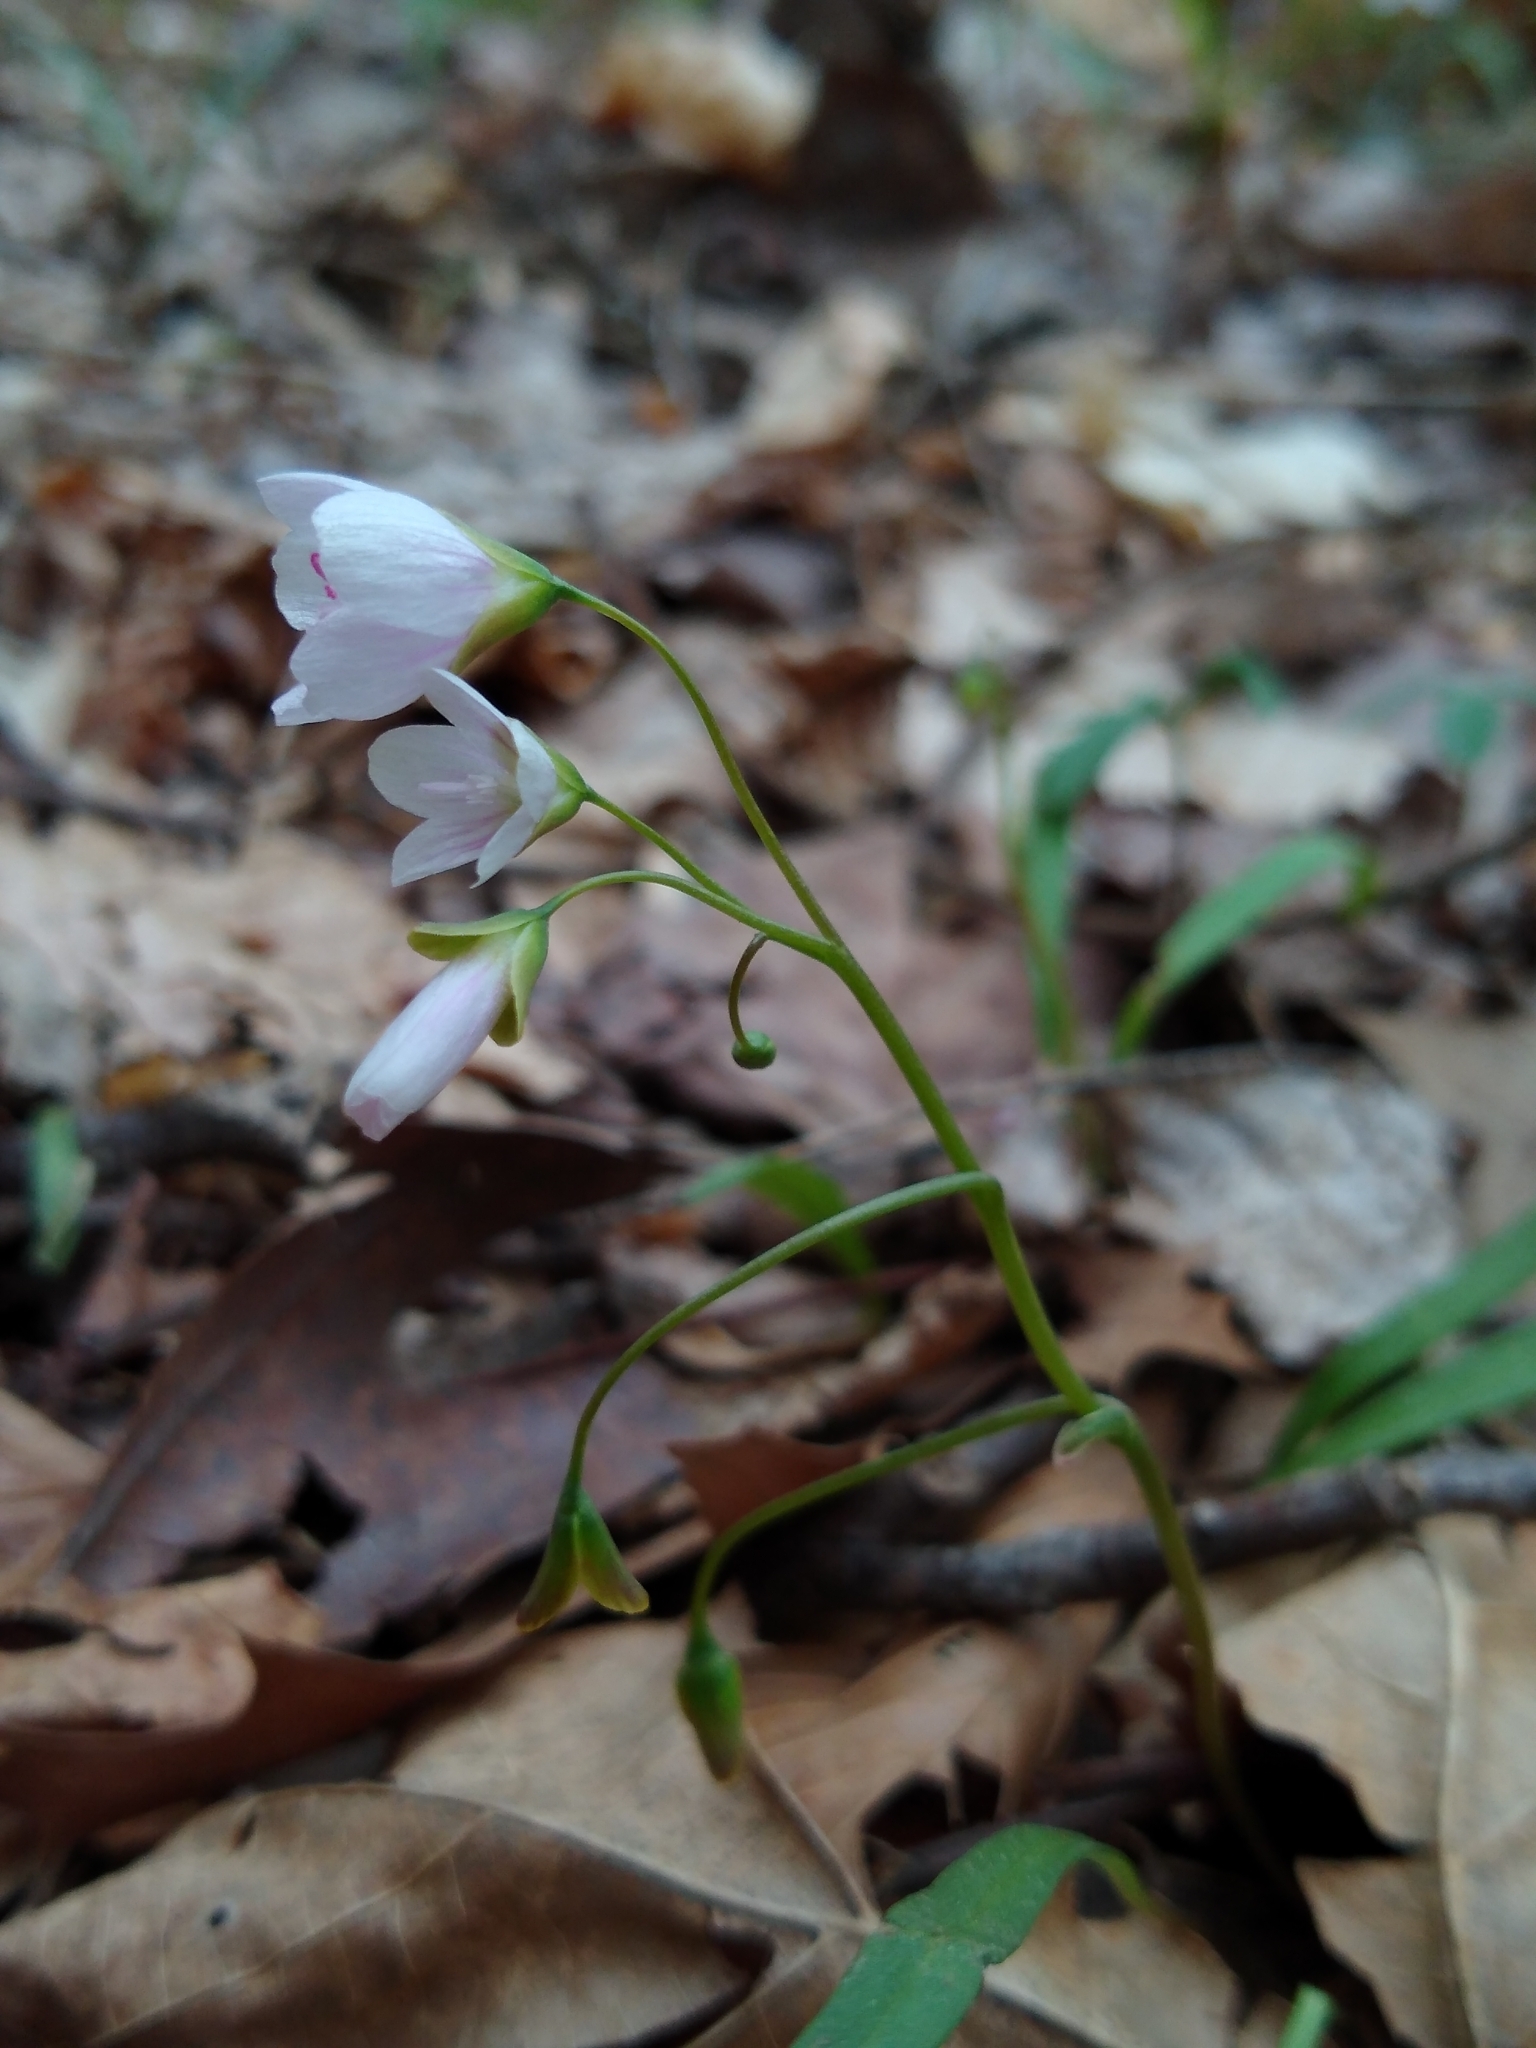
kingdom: Plantae
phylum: Tracheophyta
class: Magnoliopsida
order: Caryophyllales
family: Montiaceae
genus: Claytonia
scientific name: Claytonia virginica
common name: Virginia springbeauty
